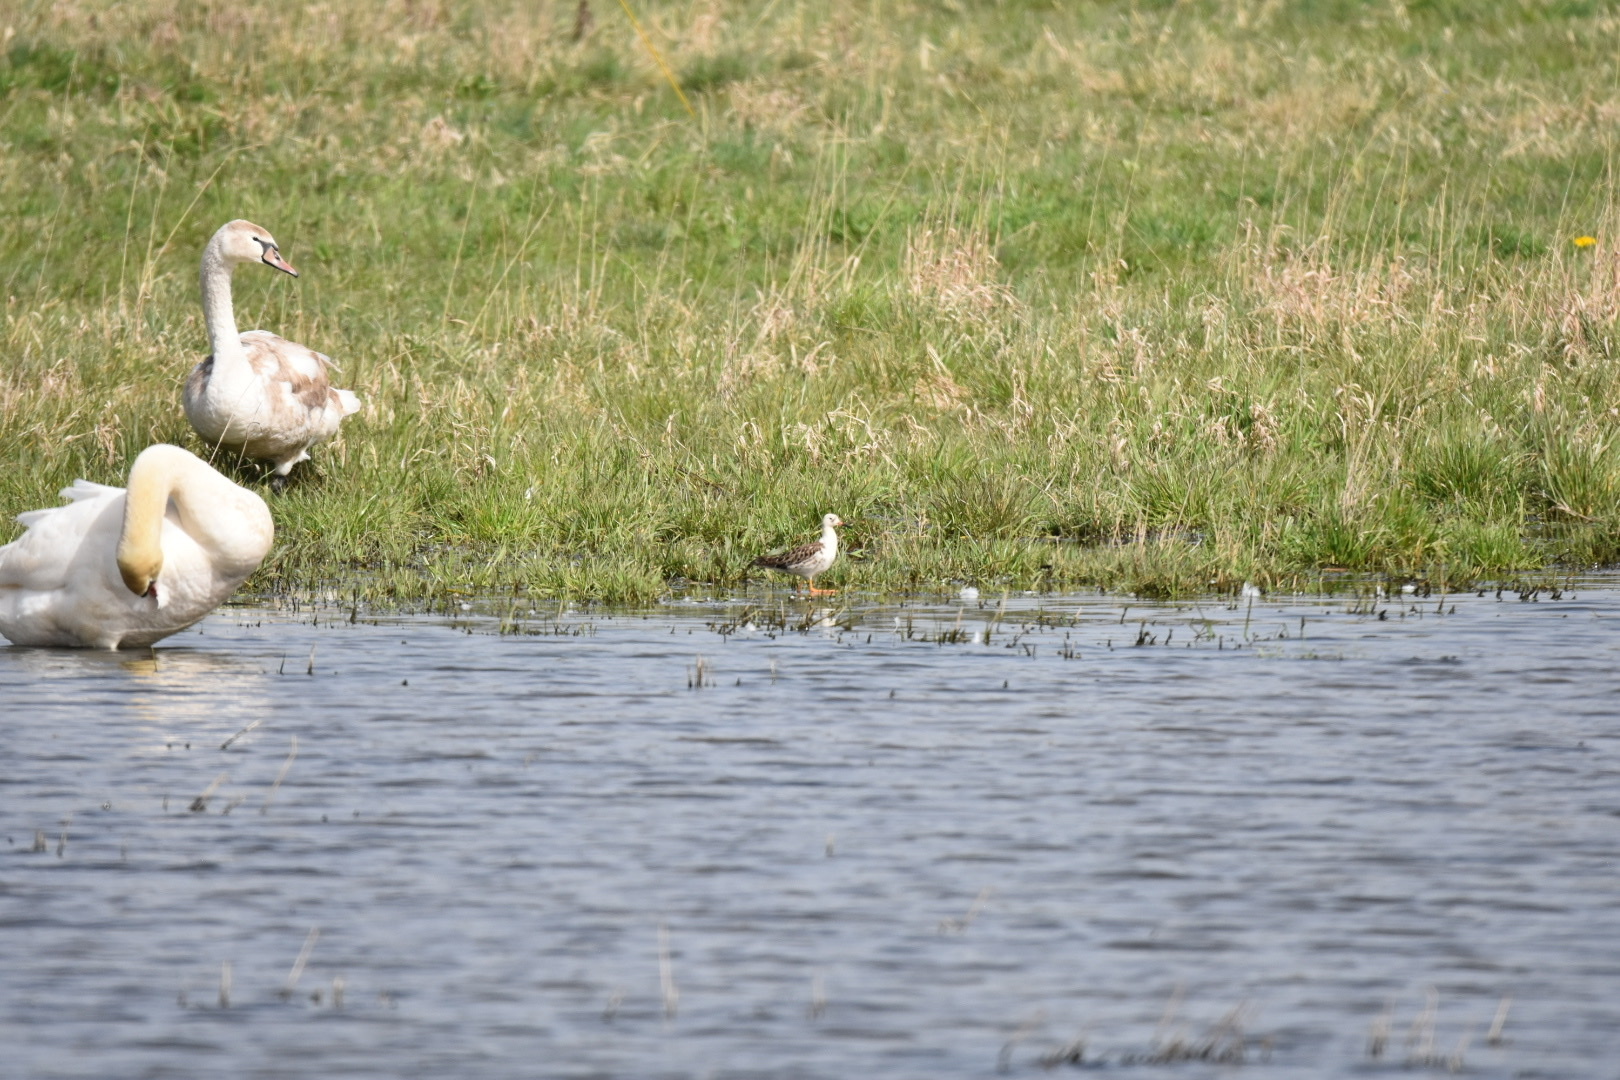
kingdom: Animalia
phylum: Chordata
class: Aves
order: Charadriiformes
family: Scolopacidae
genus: Calidris
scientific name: Calidris pugnax
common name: Ruff
